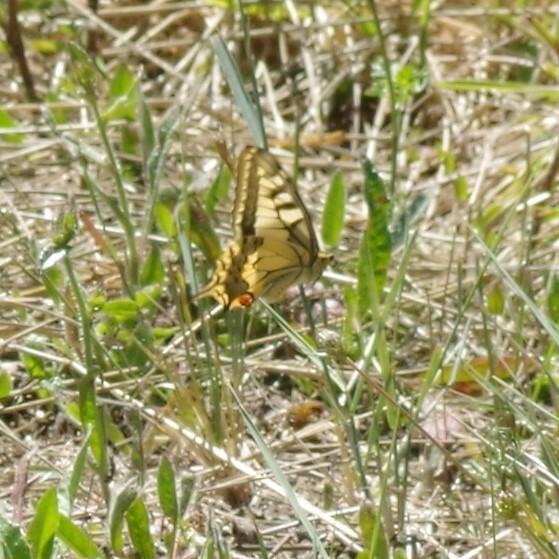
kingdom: Animalia
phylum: Arthropoda
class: Insecta
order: Lepidoptera
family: Papilionidae
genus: Papilio
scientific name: Papilio machaon
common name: Swallowtail
